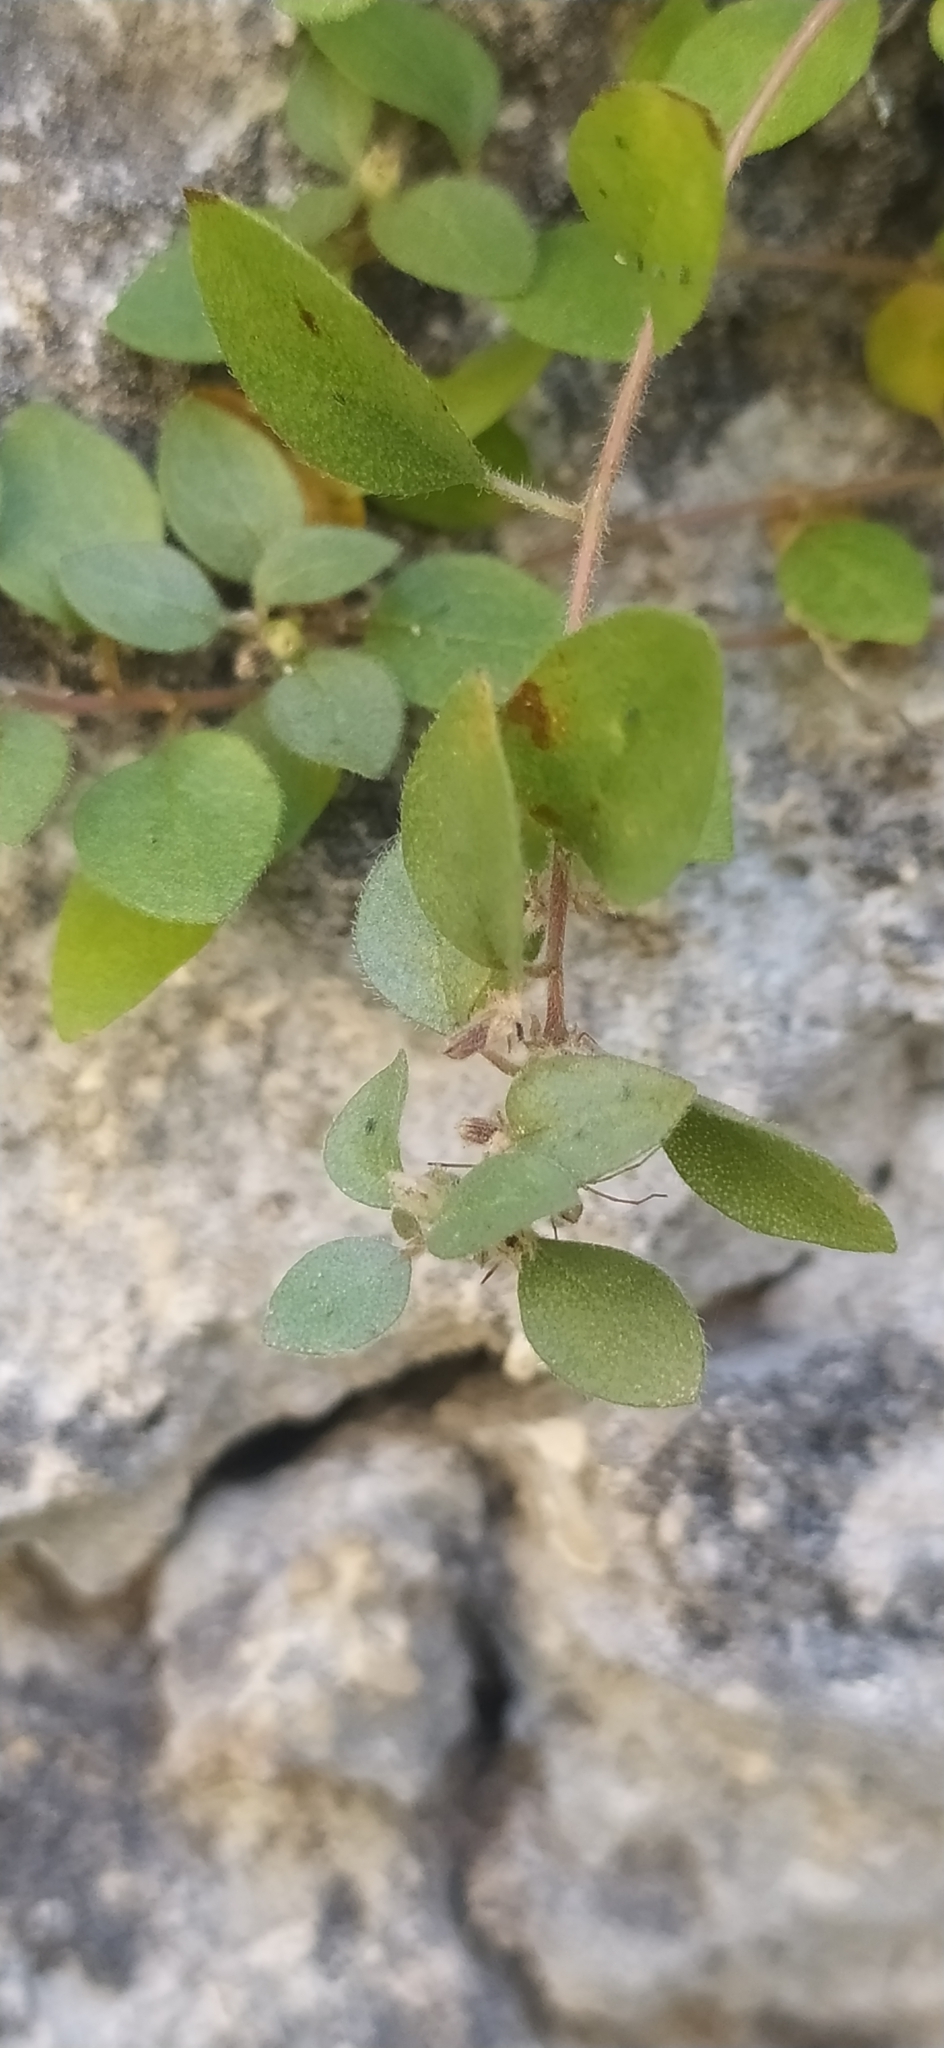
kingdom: Plantae
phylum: Tracheophyta
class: Magnoliopsida
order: Rosales
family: Urticaceae
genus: Parietaria
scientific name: Parietaria lusitanica
